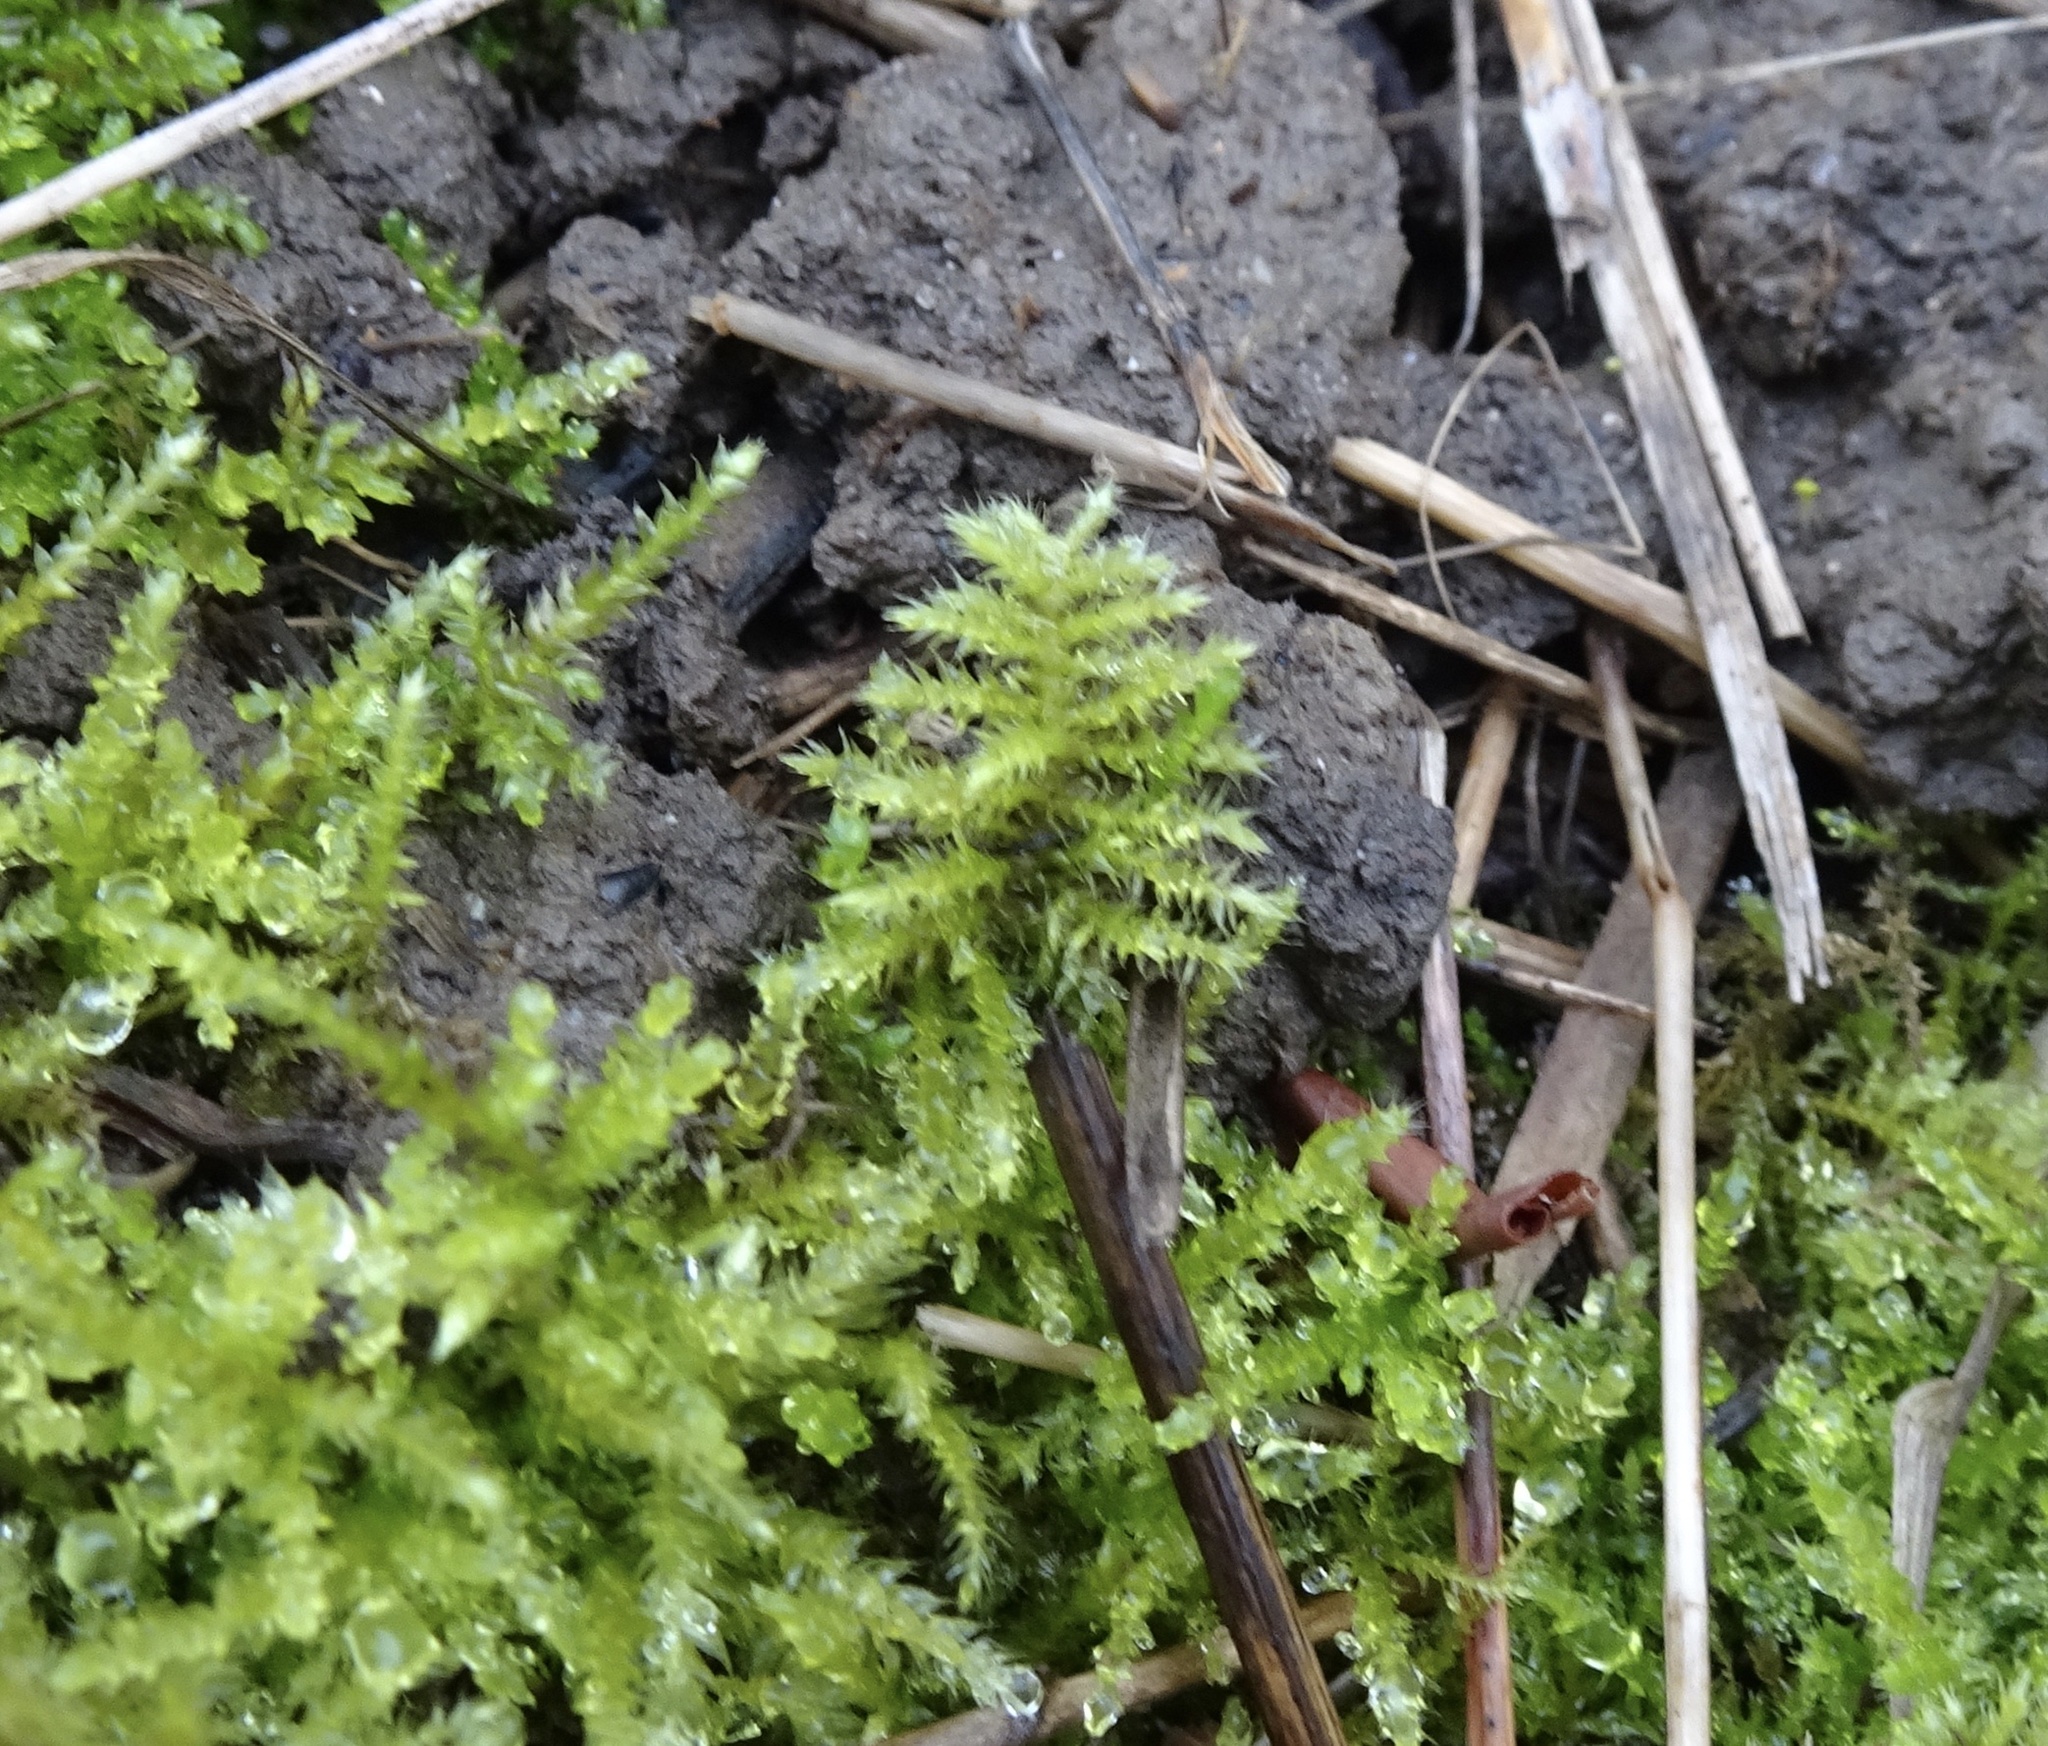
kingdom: Plantae
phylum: Bryophyta
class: Bryopsida
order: Hypnales
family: Brachytheciaceae
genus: Kindbergia
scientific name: Kindbergia praelonga
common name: Slender beaked moss
